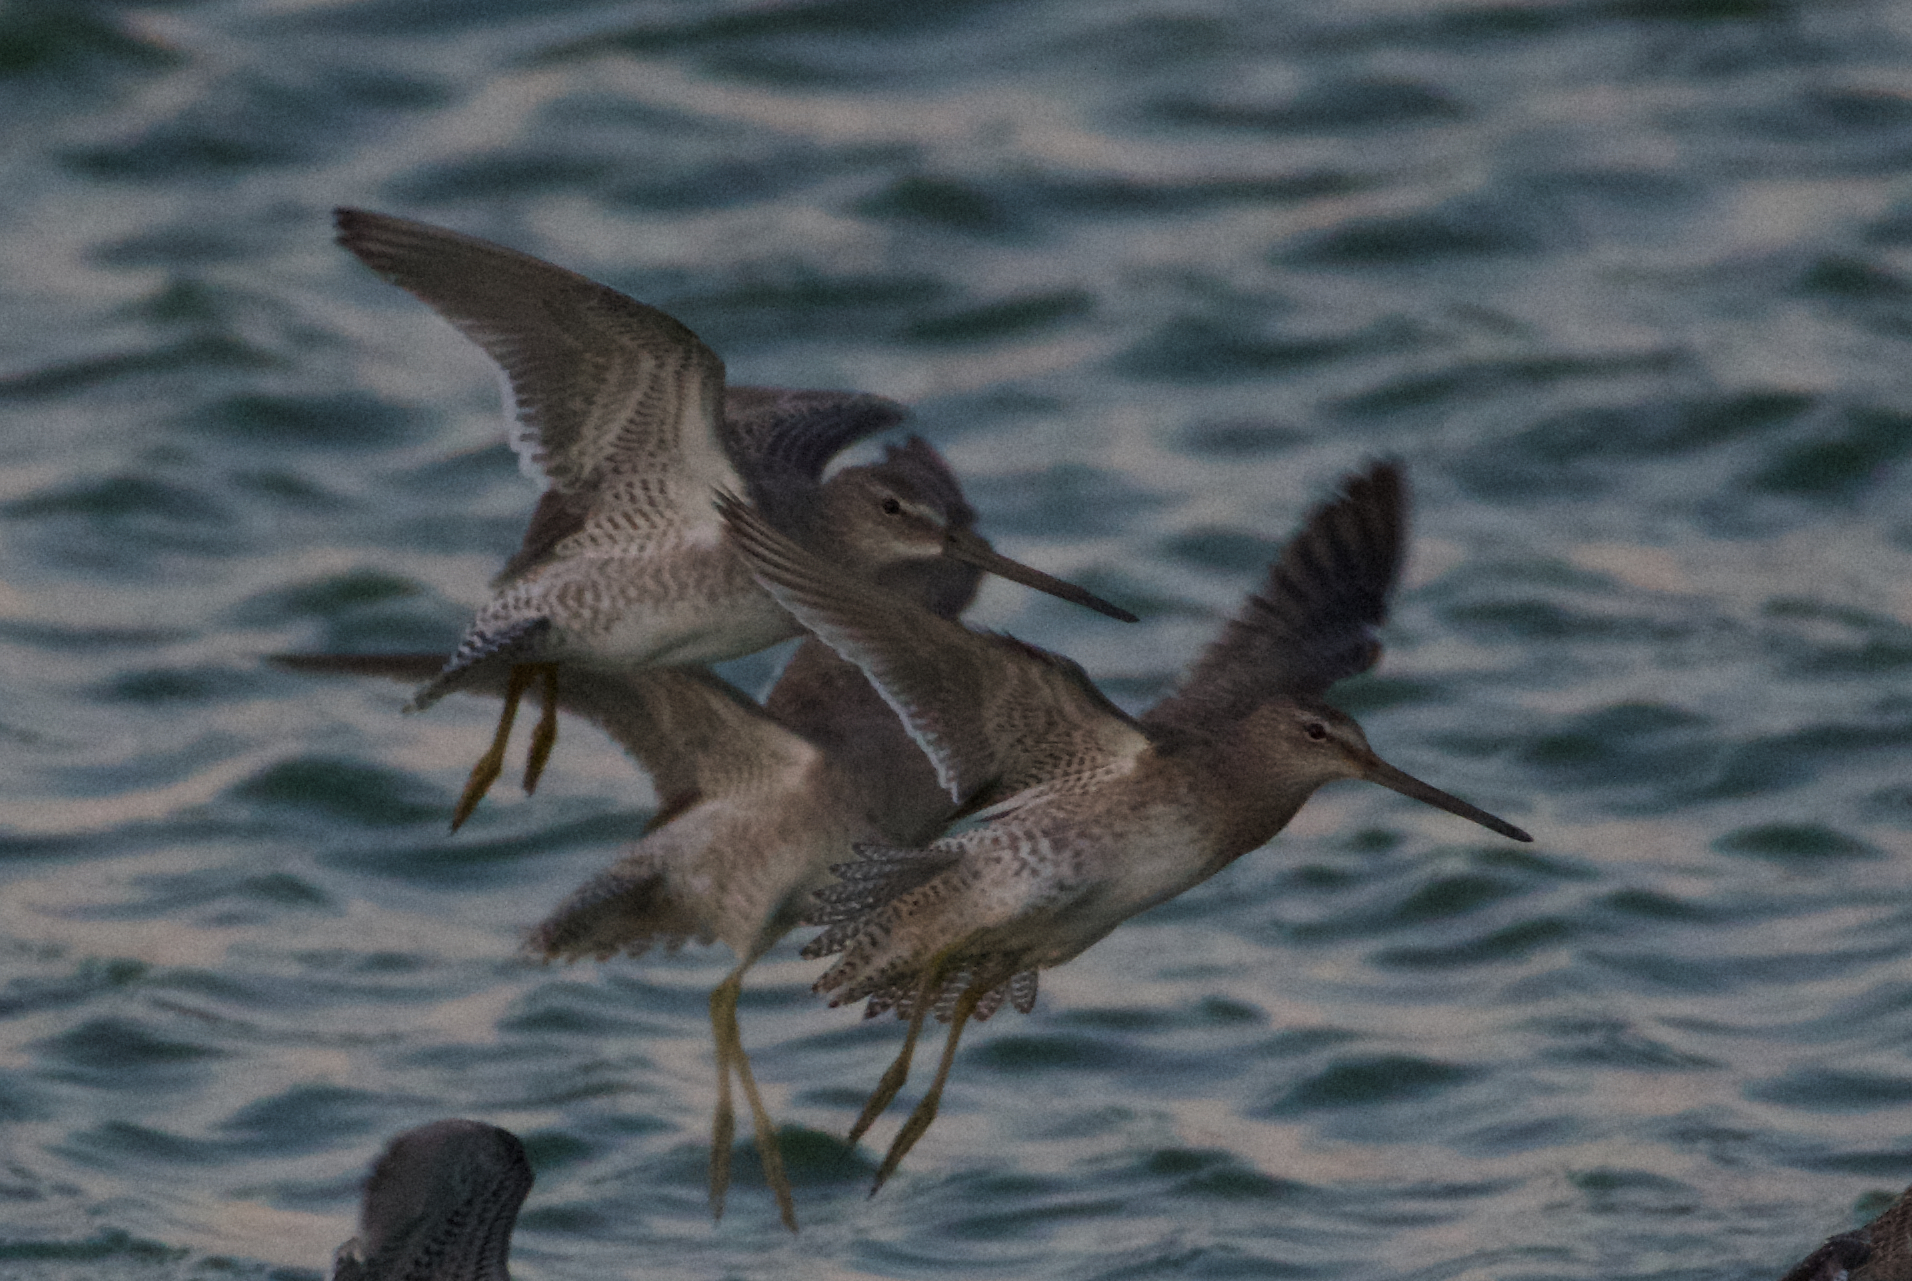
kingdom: Animalia
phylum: Chordata
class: Aves
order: Charadriiformes
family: Scolopacidae
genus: Limnodromus
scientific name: Limnodromus scolopaceus
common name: Long-billed dowitcher
